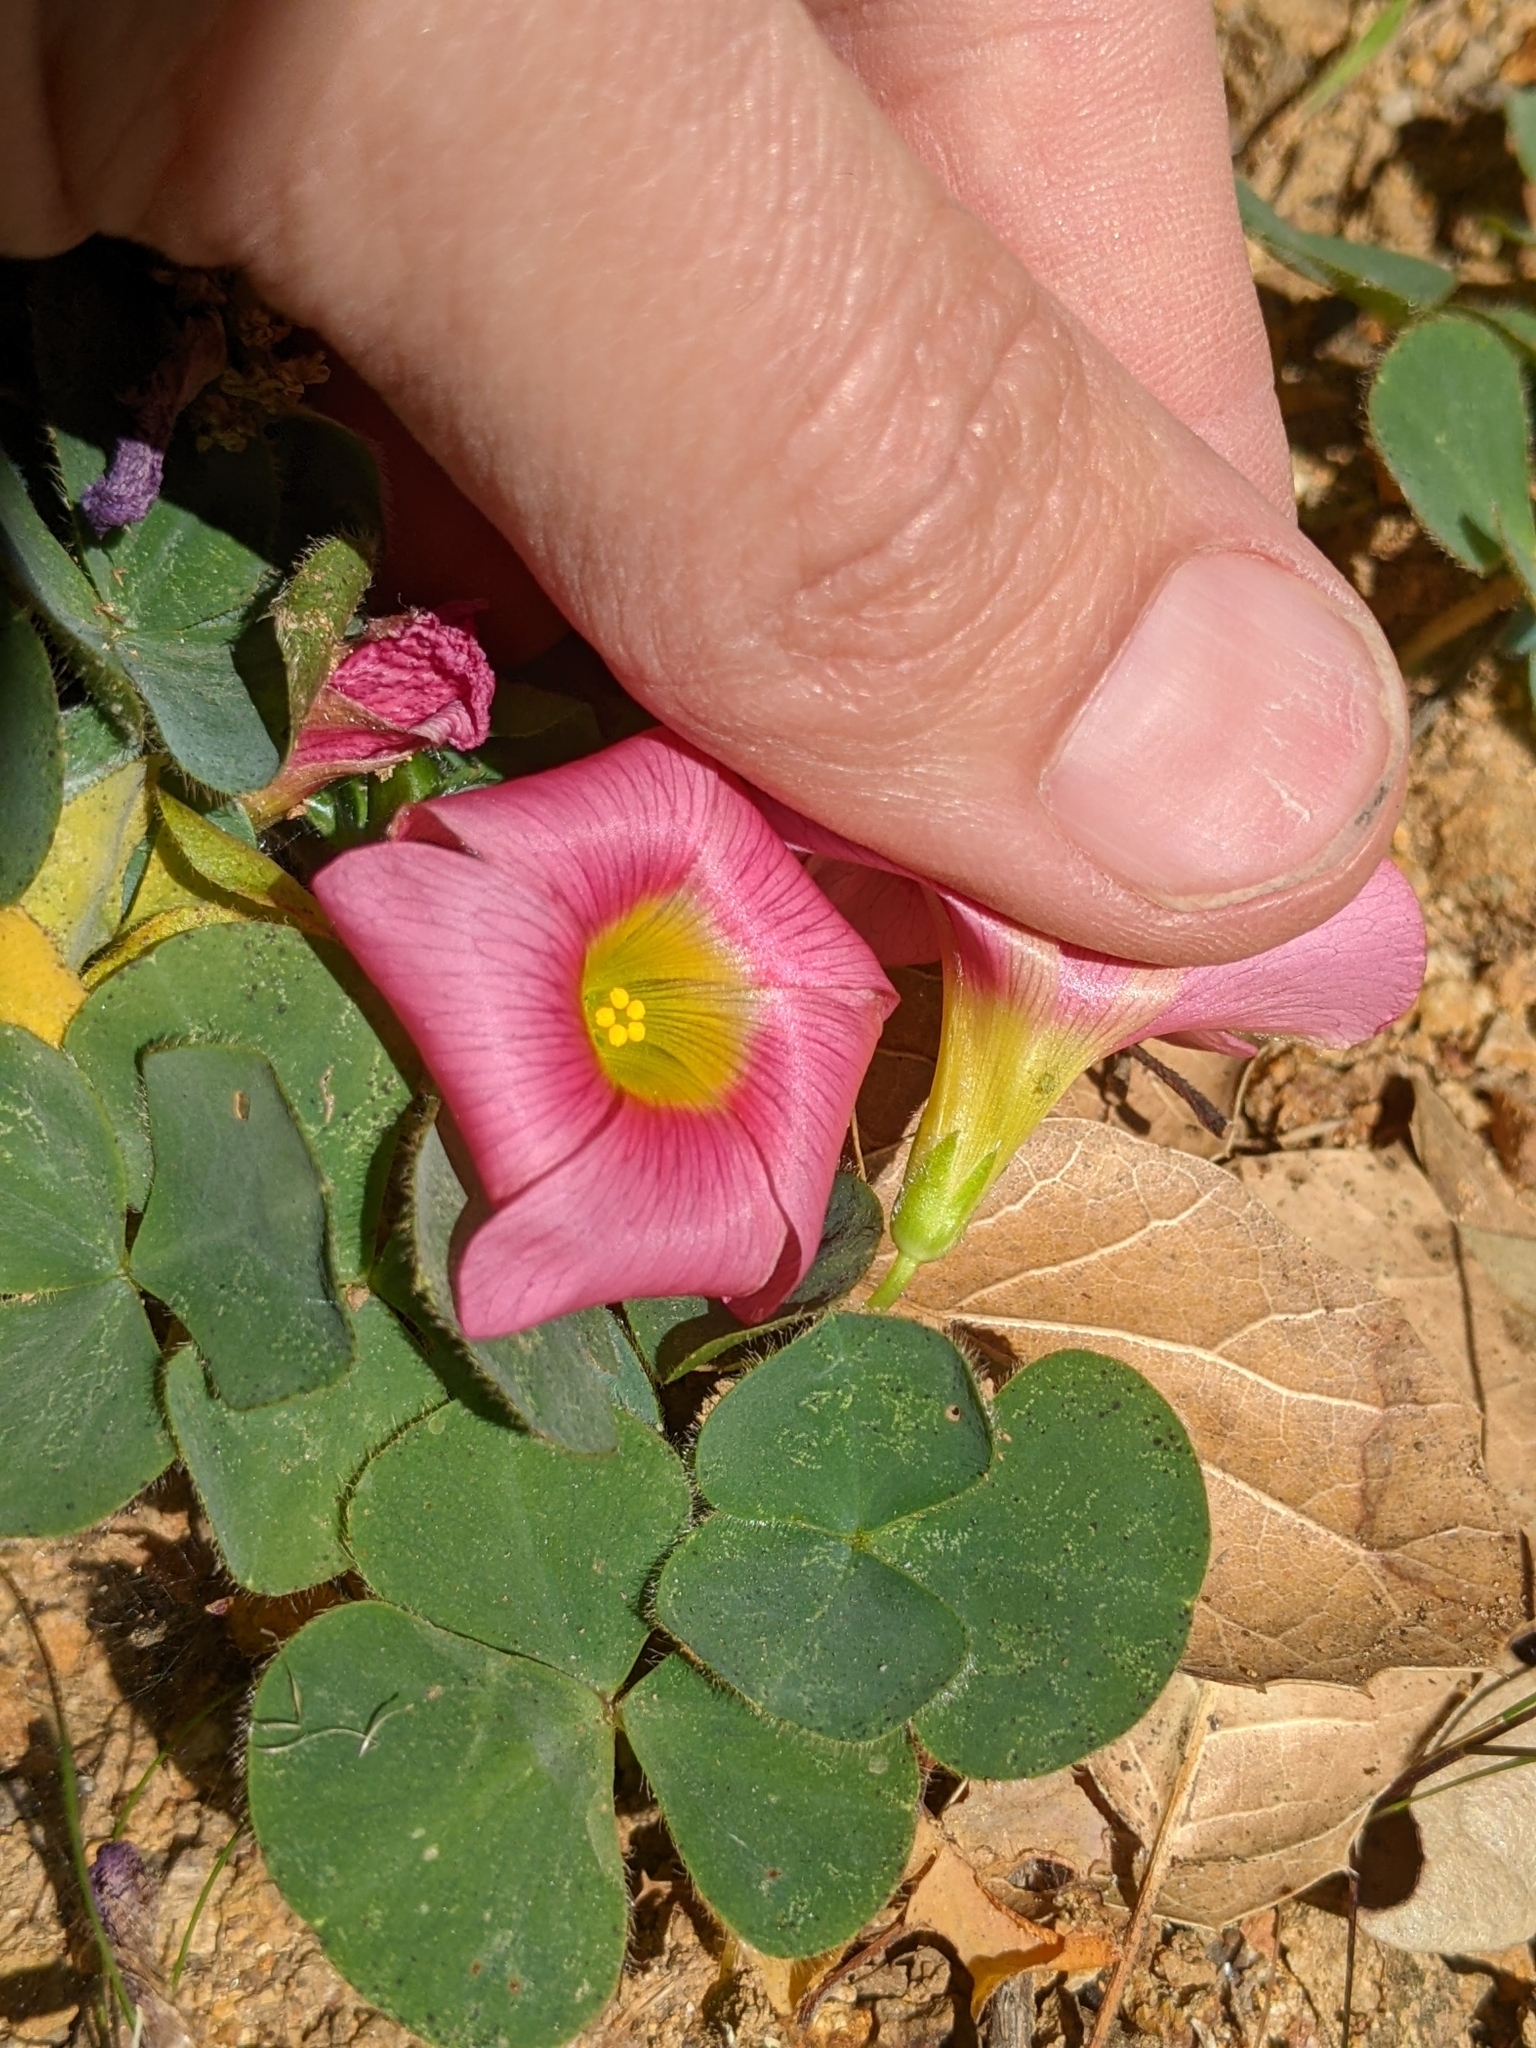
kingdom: Plantae
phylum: Tracheophyta
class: Magnoliopsida
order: Oxalidales
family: Oxalidaceae
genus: Oxalis
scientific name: Oxalis purpurea
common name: Purple woodsorrel
